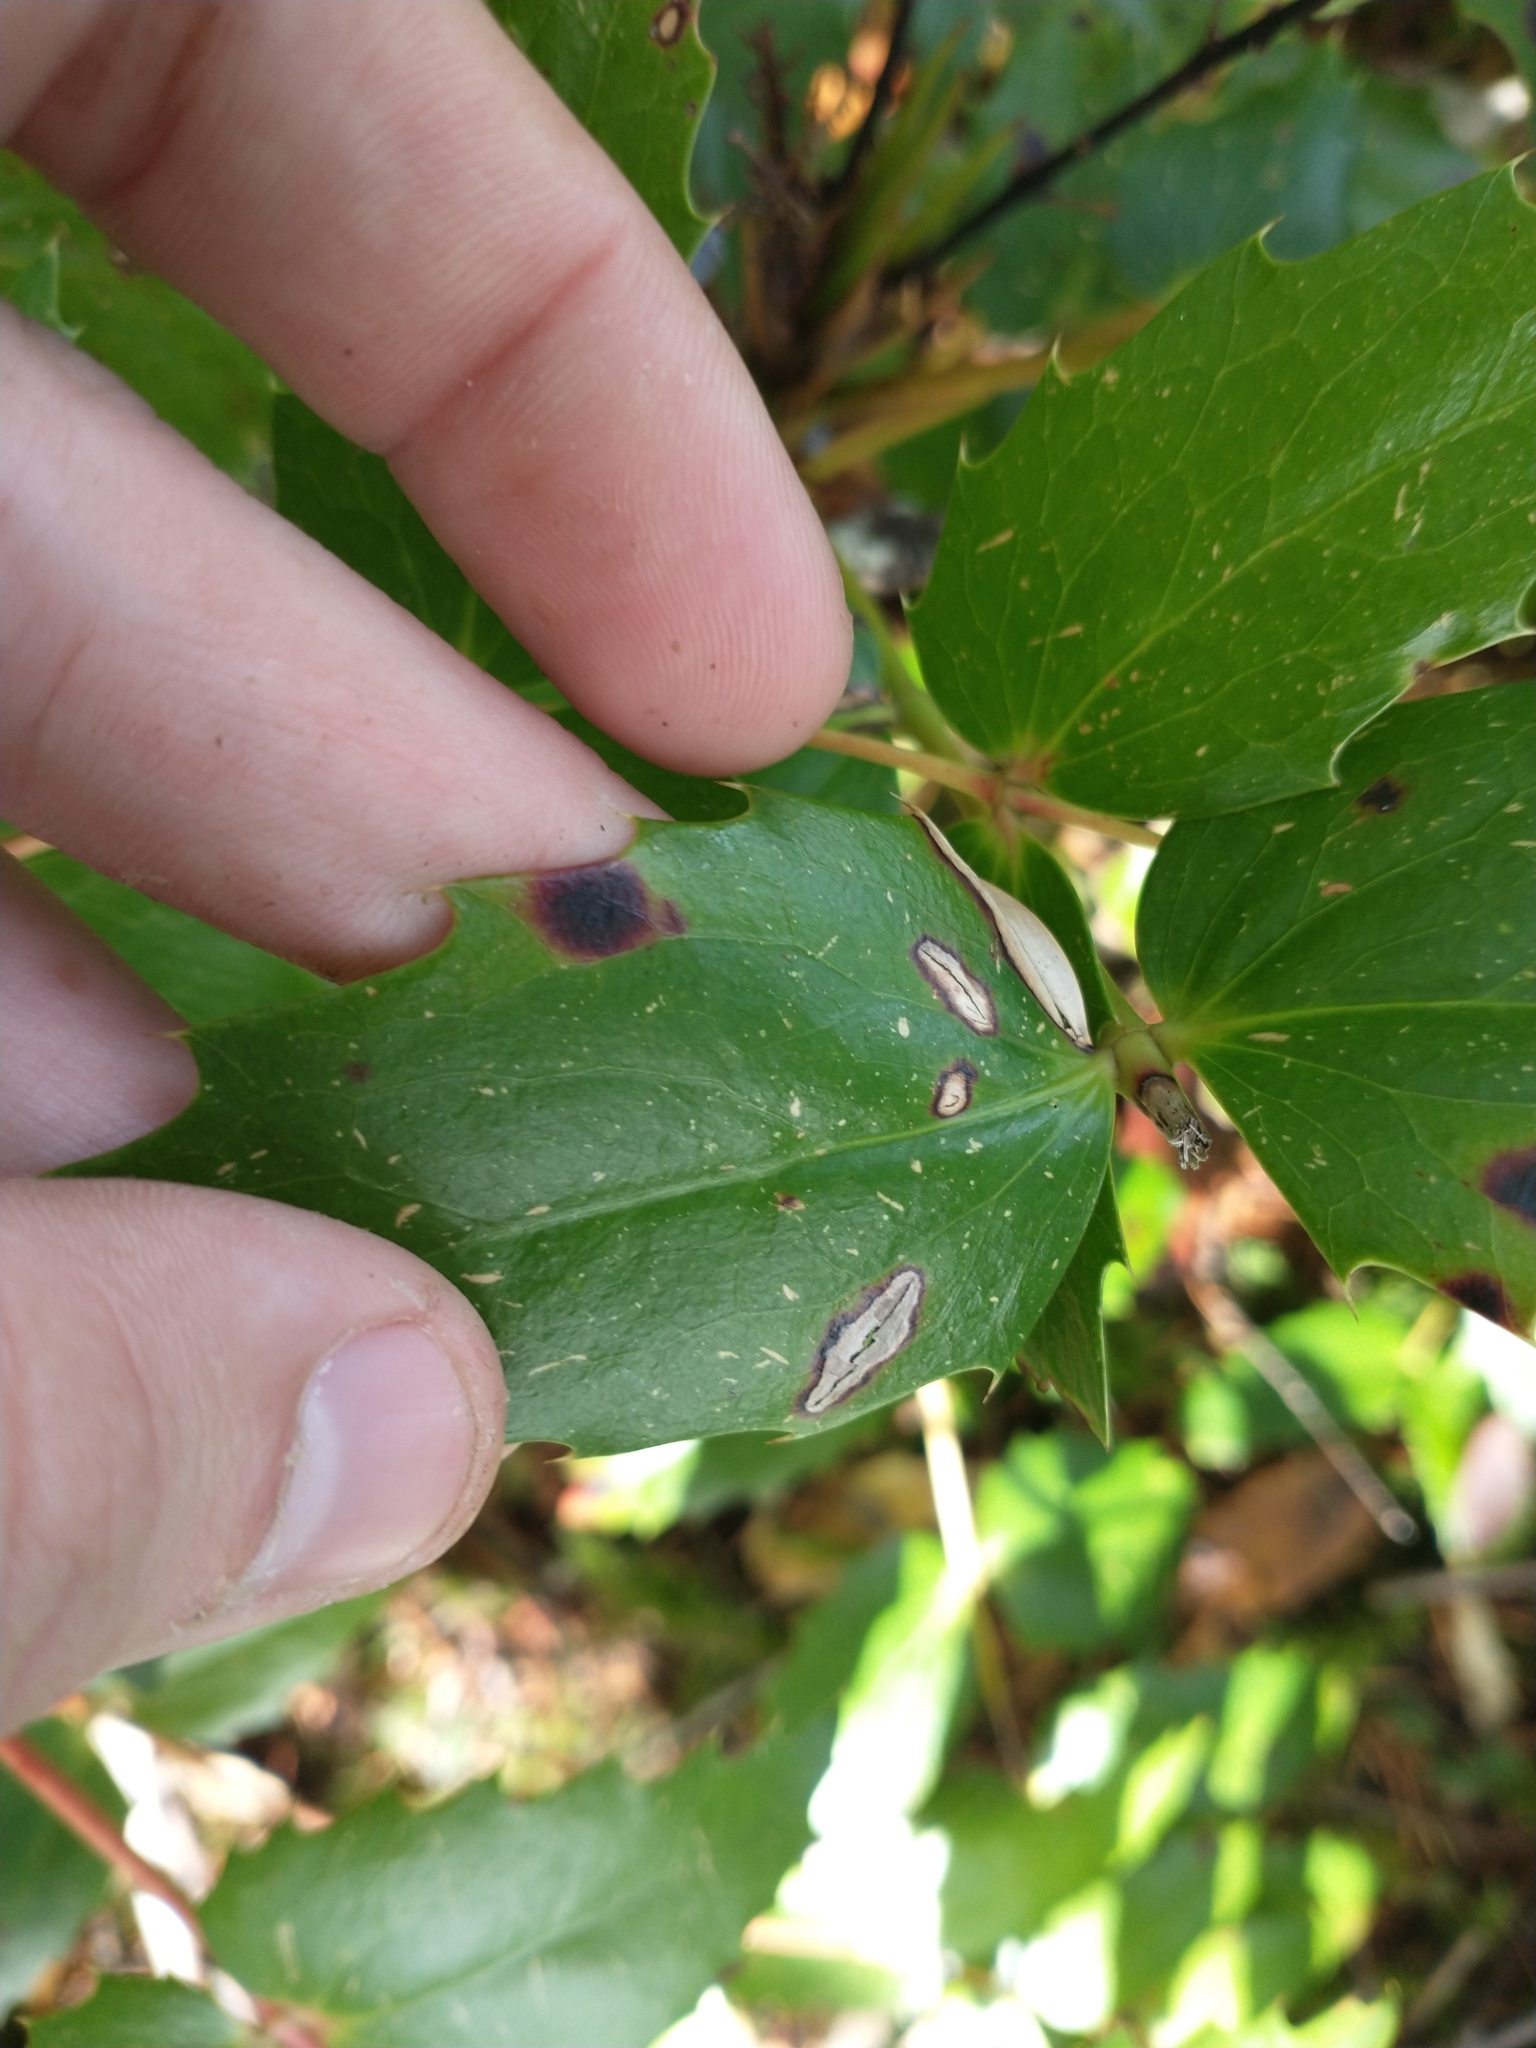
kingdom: Plantae
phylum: Tracheophyta
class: Magnoliopsida
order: Ranunculales
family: Berberidaceae
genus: Mahonia
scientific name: Mahonia nervosa
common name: Cascade oregon-grape
